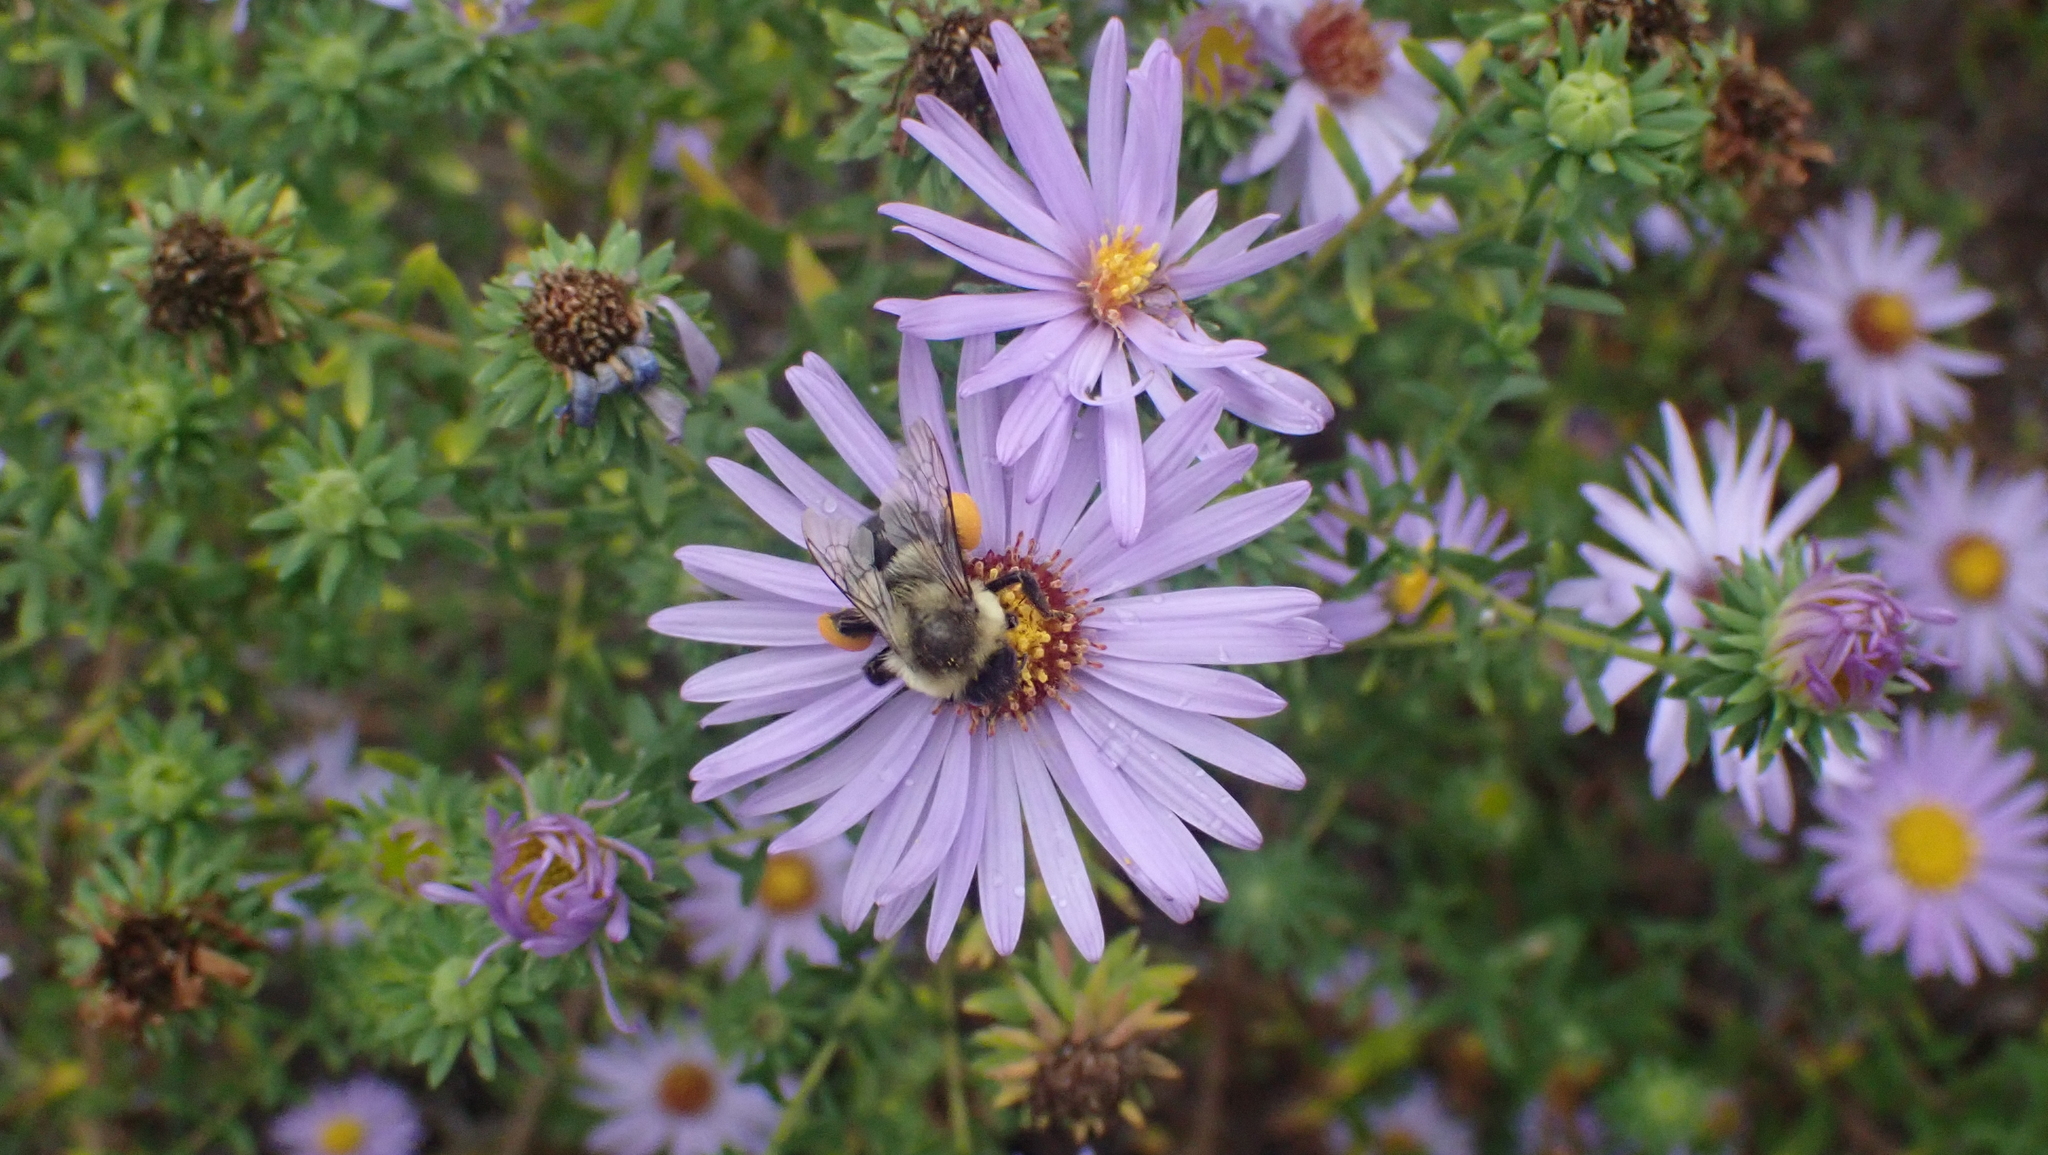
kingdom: Animalia
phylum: Arthropoda
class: Insecta
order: Hymenoptera
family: Apidae
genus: Bombus
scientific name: Bombus impatiens
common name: Common eastern bumble bee
